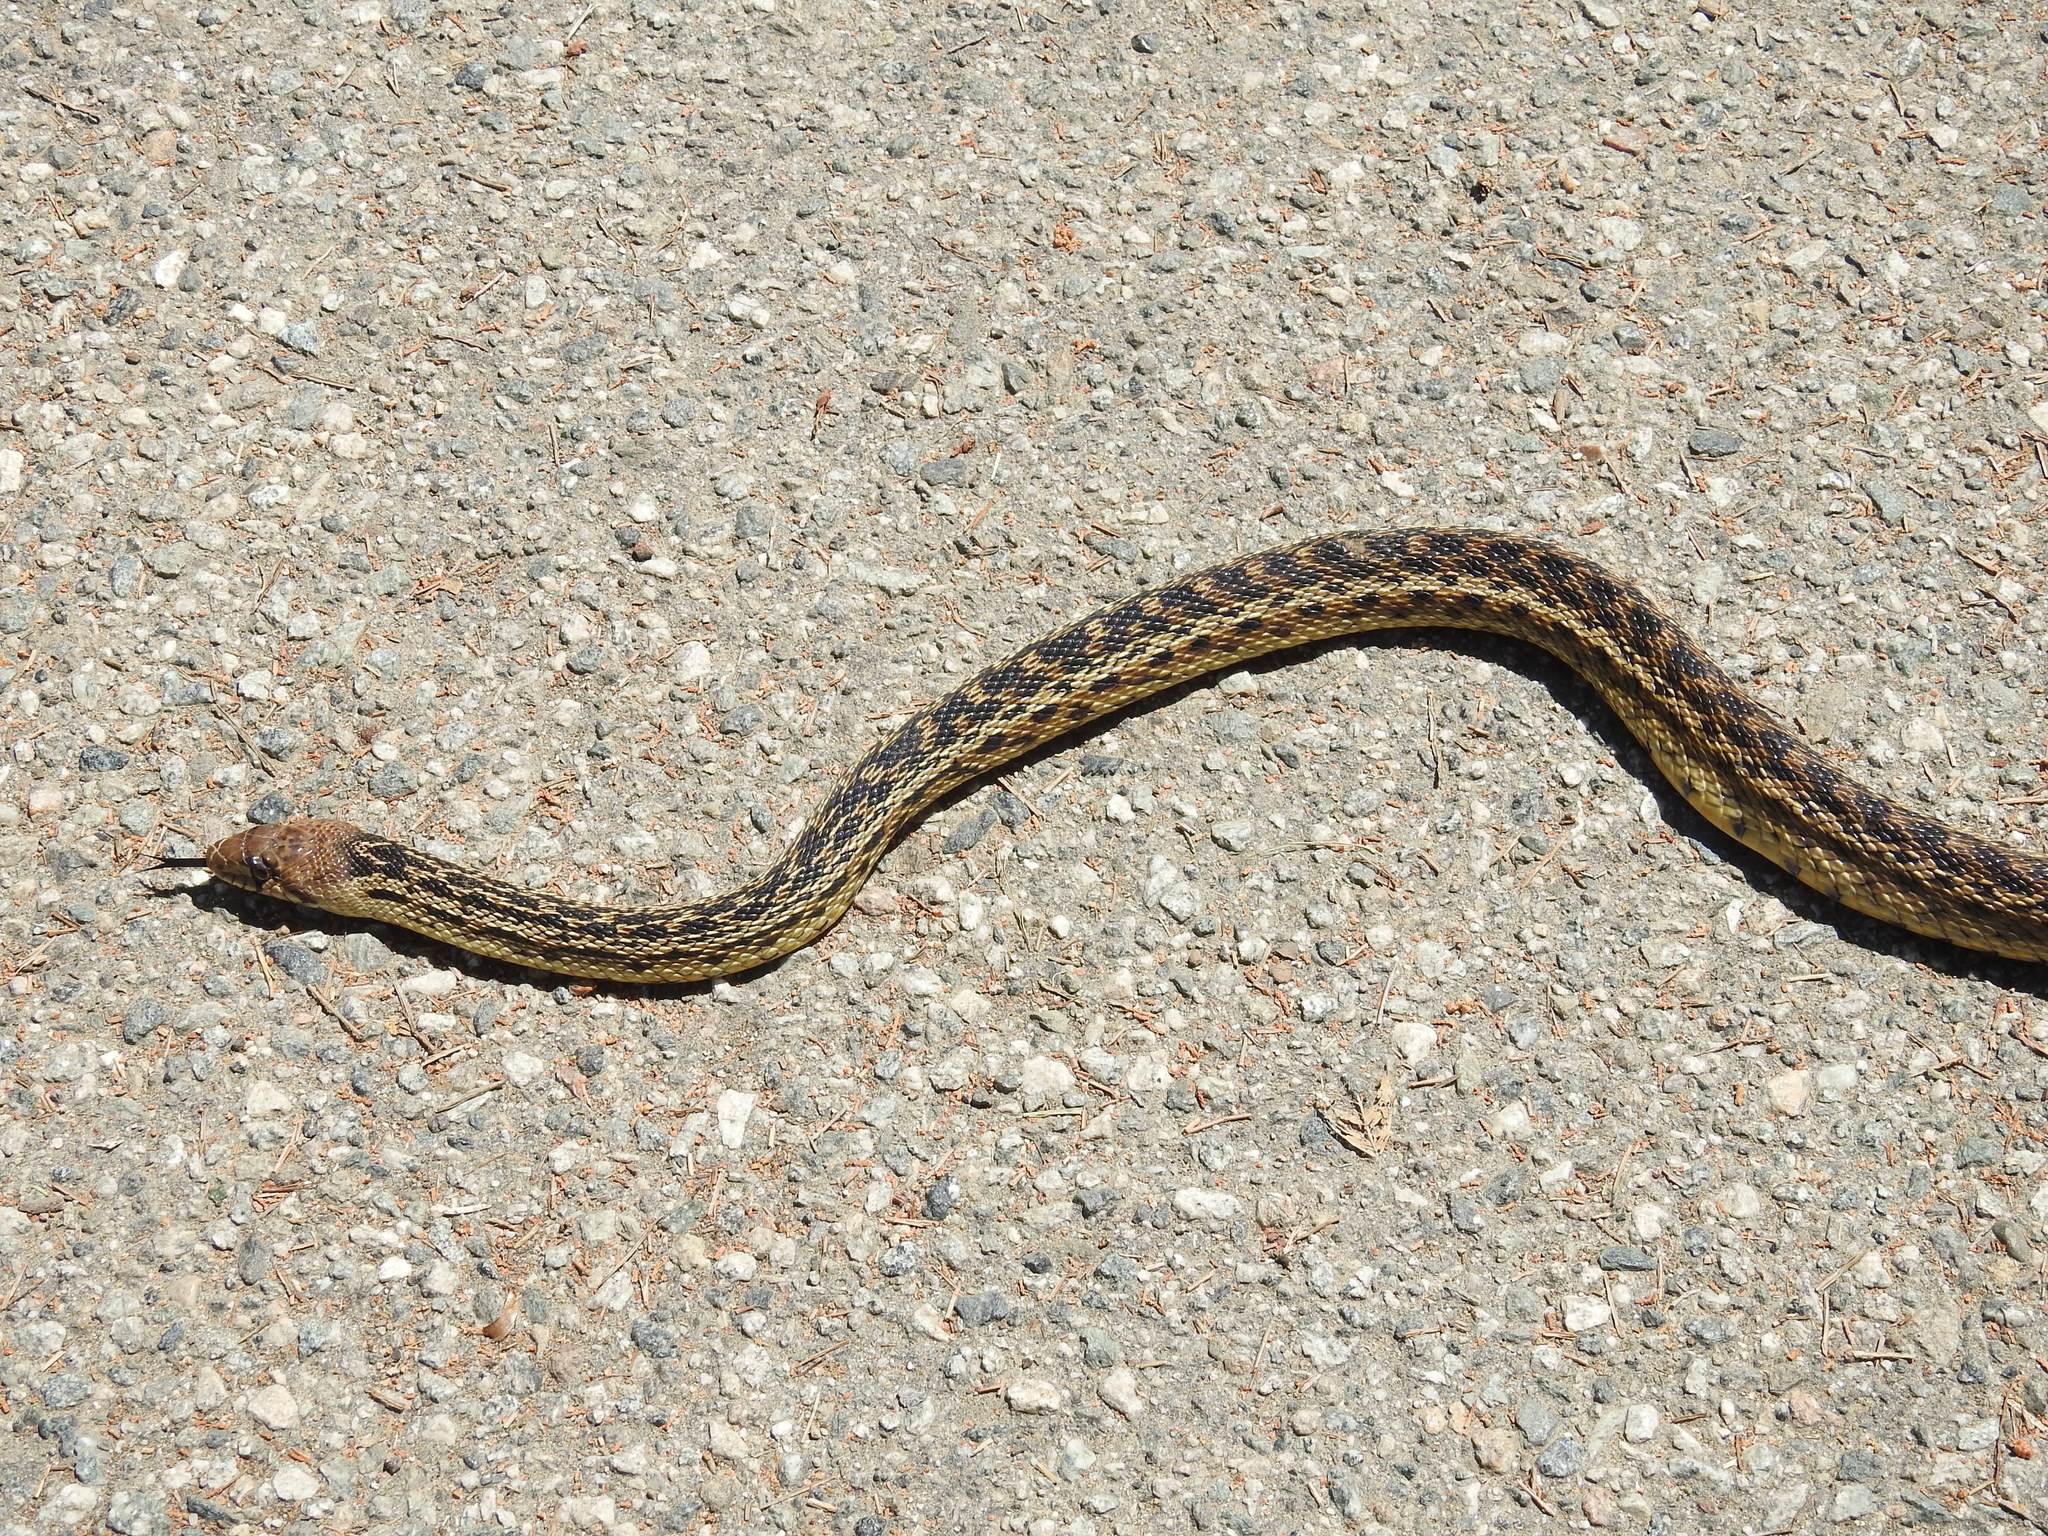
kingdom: Animalia
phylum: Chordata
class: Squamata
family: Colubridae
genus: Pituophis
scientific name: Pituophis catenifer
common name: Gopher snake
